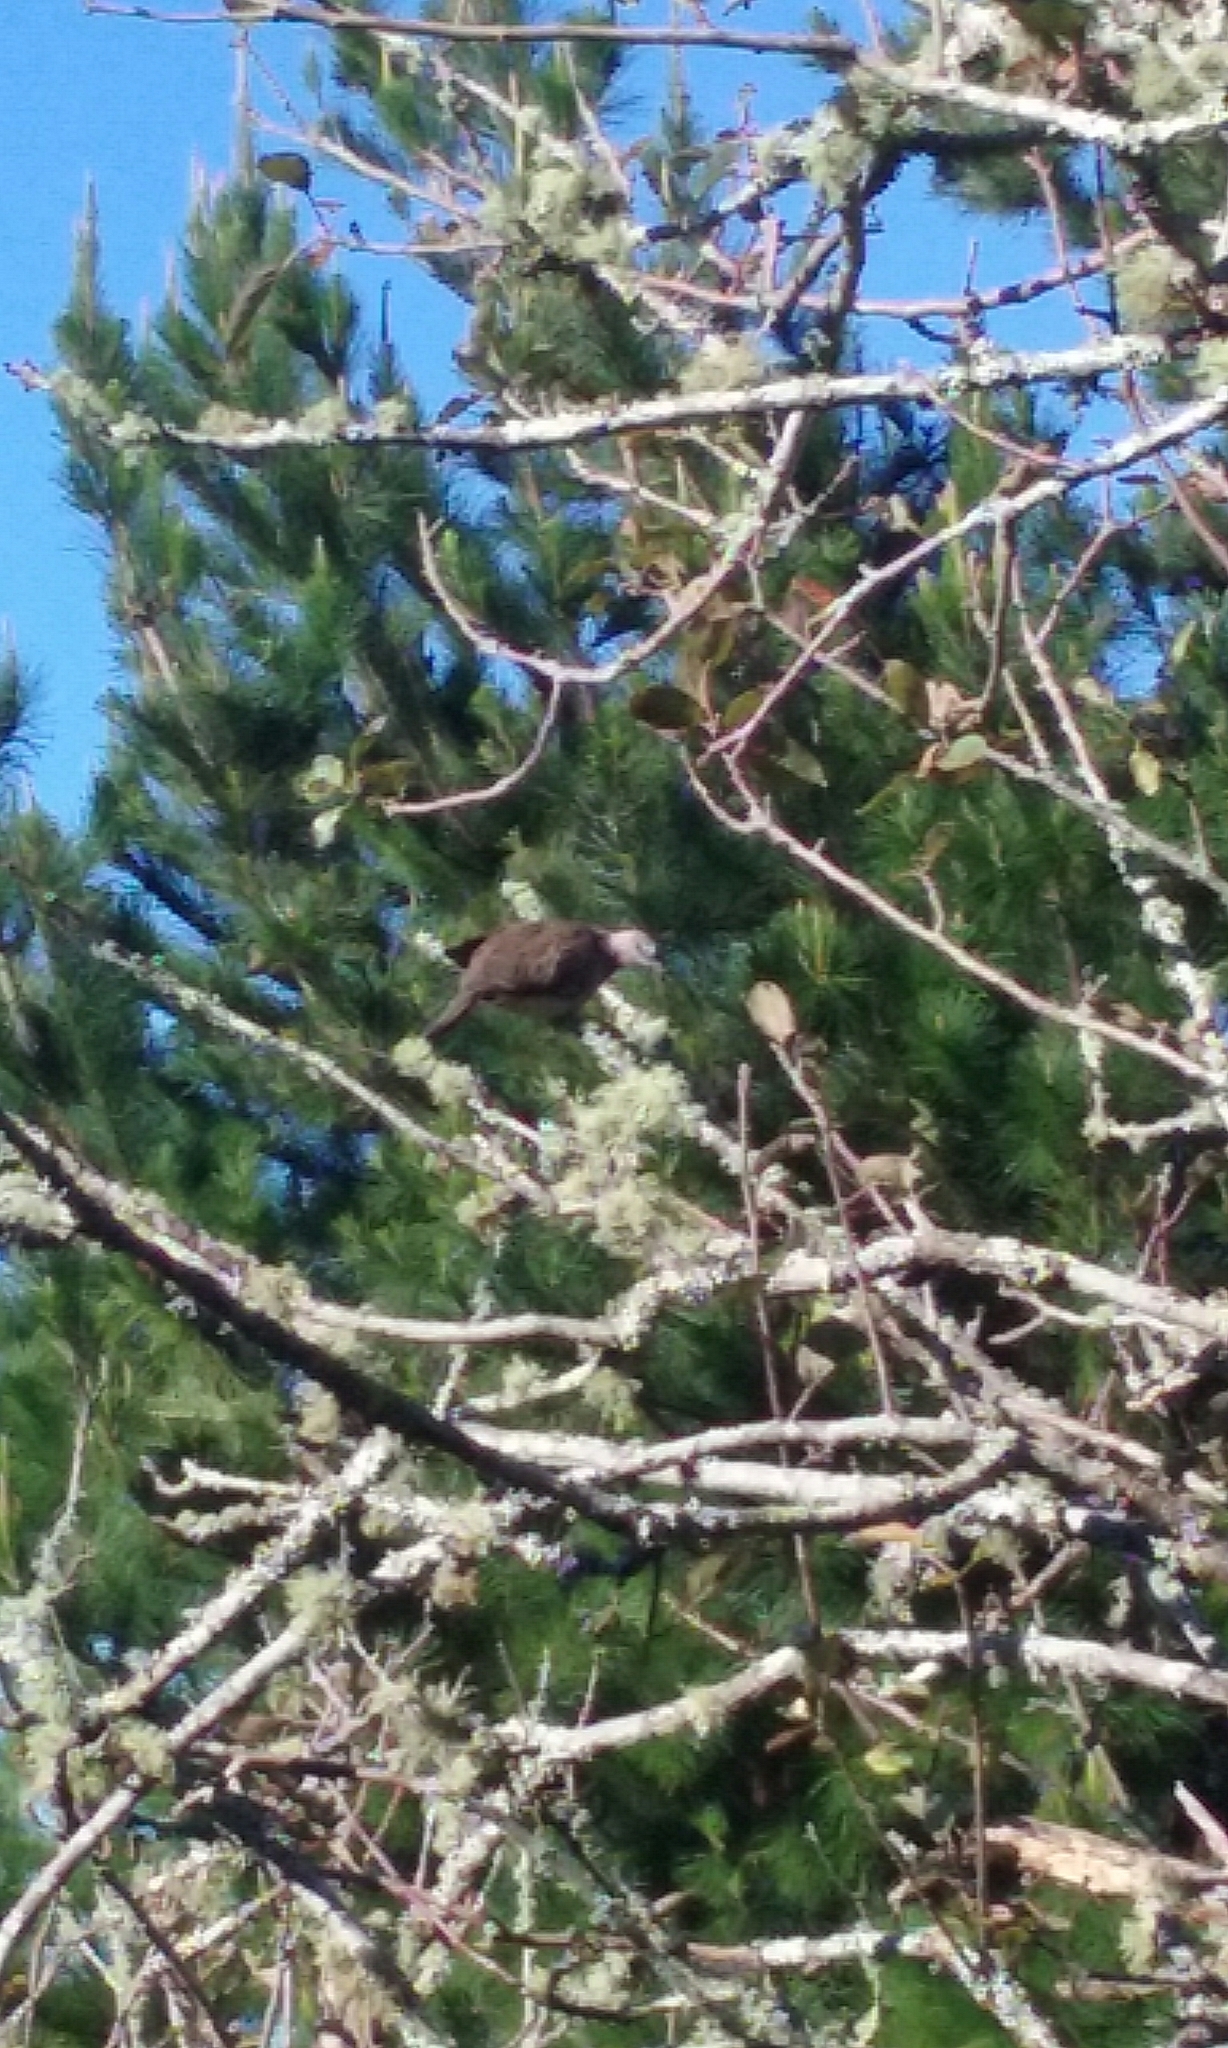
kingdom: Animalia
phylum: Chordata
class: Aves
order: Columbiformes
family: Columbidae
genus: Spilopelia
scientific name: Spilopelia chinensis
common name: Spotted dove
